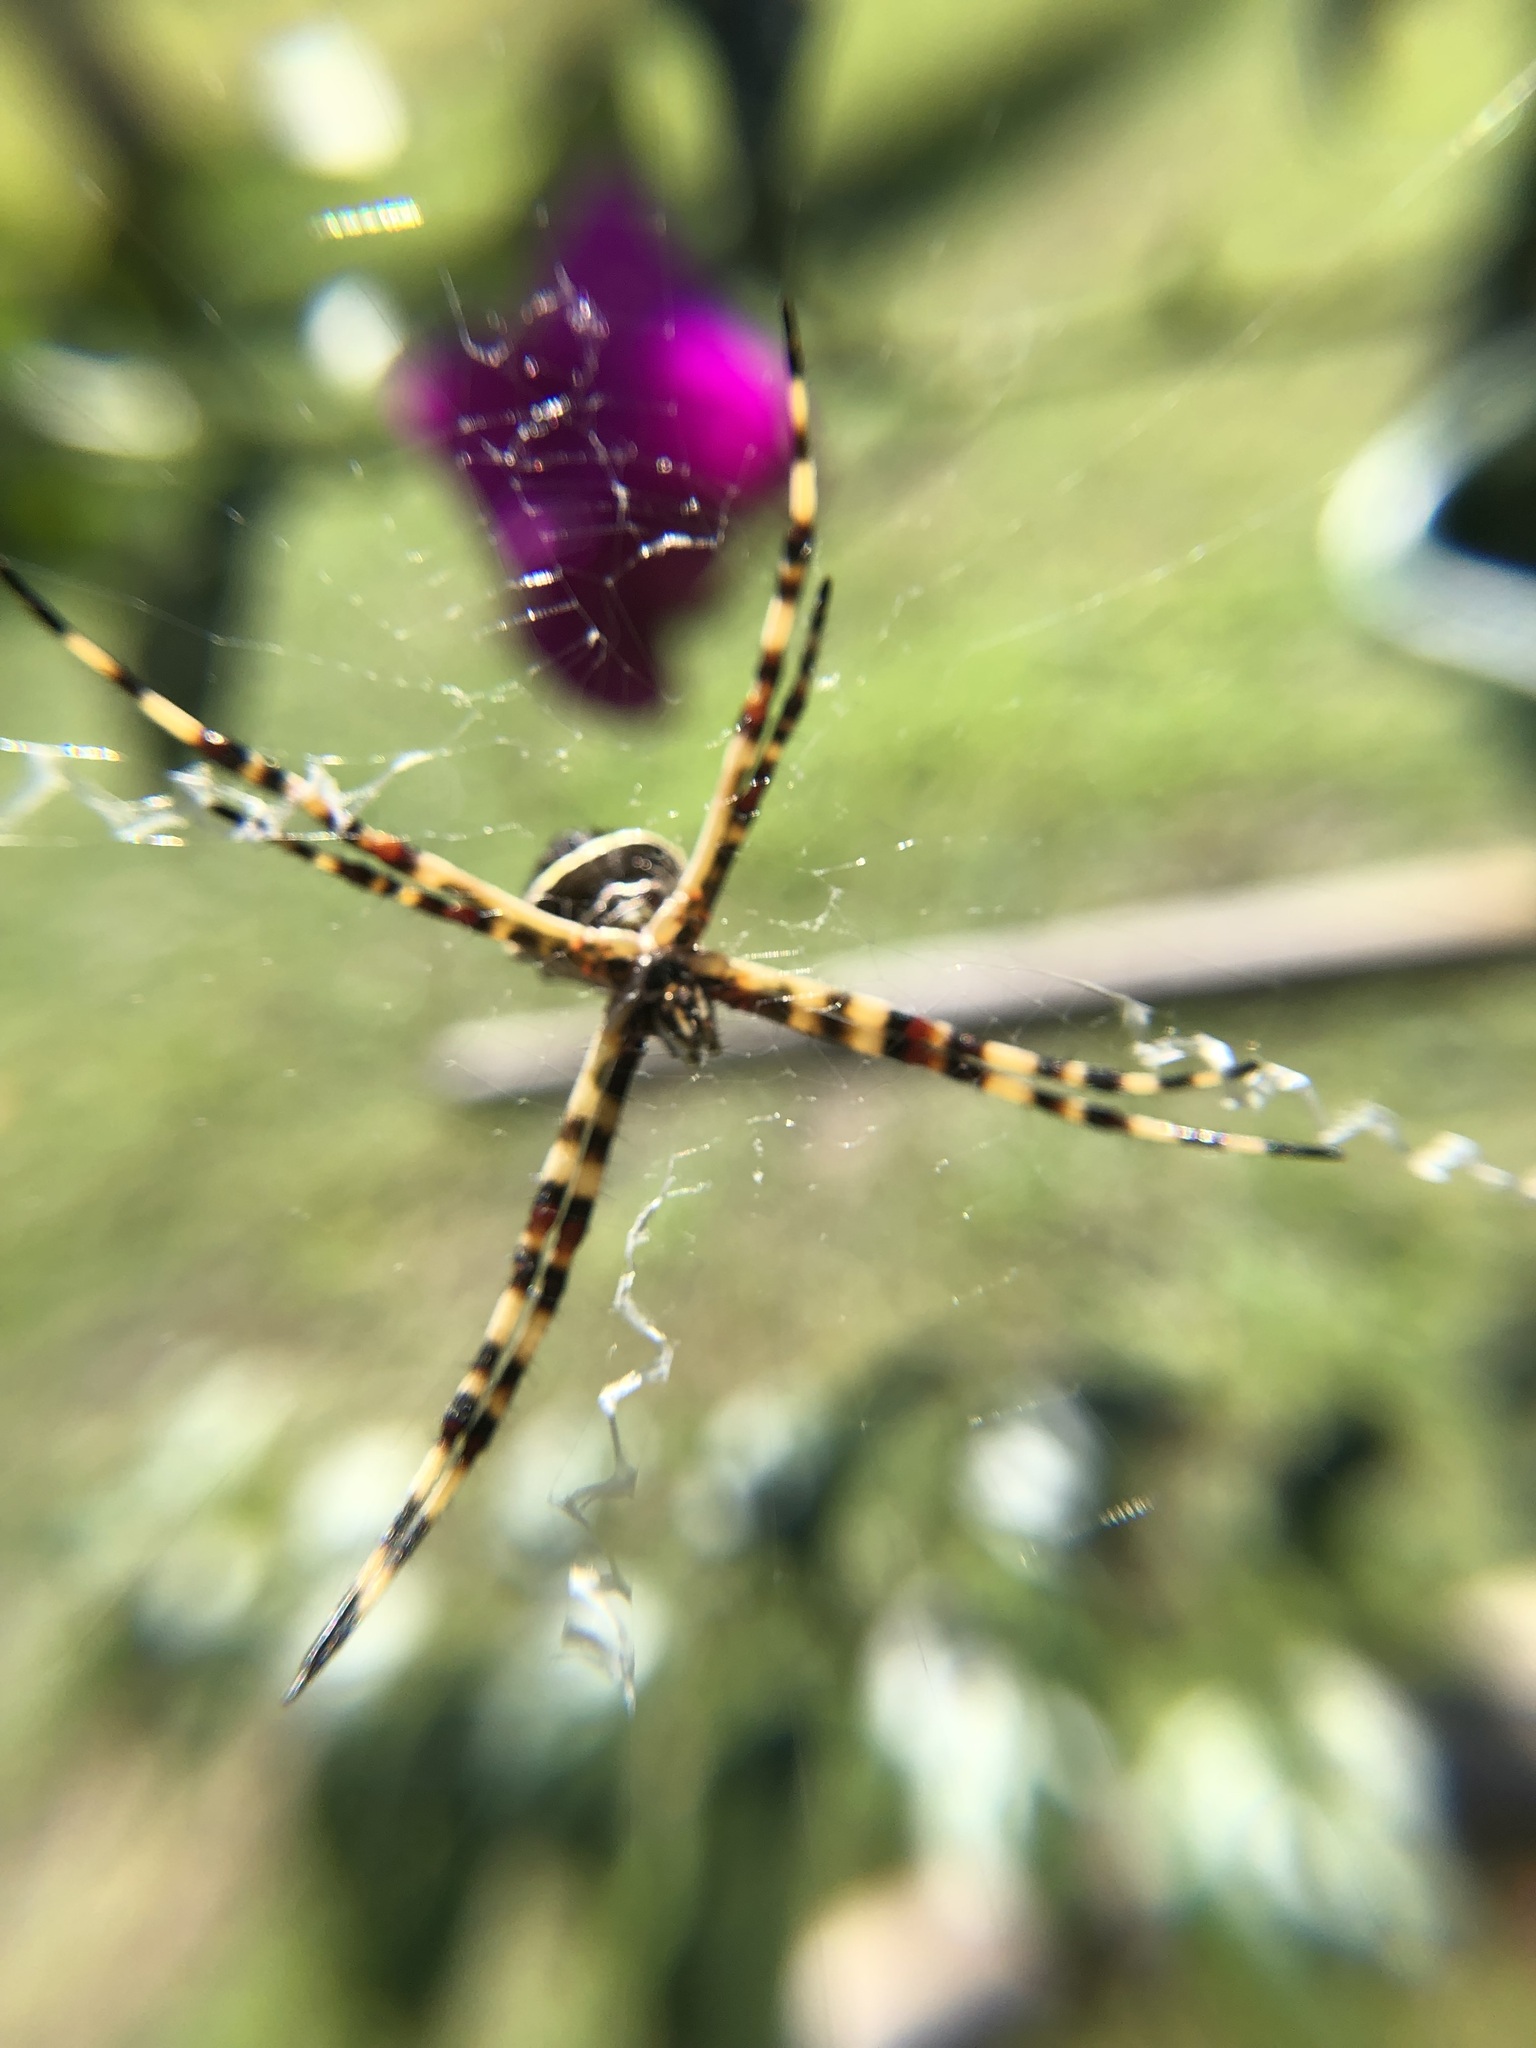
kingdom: Animalia
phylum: Arthropoda
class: Arachnida
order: Araneae
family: Araneidae
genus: Argiope
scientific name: Argiope argentata
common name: Orb weavers
